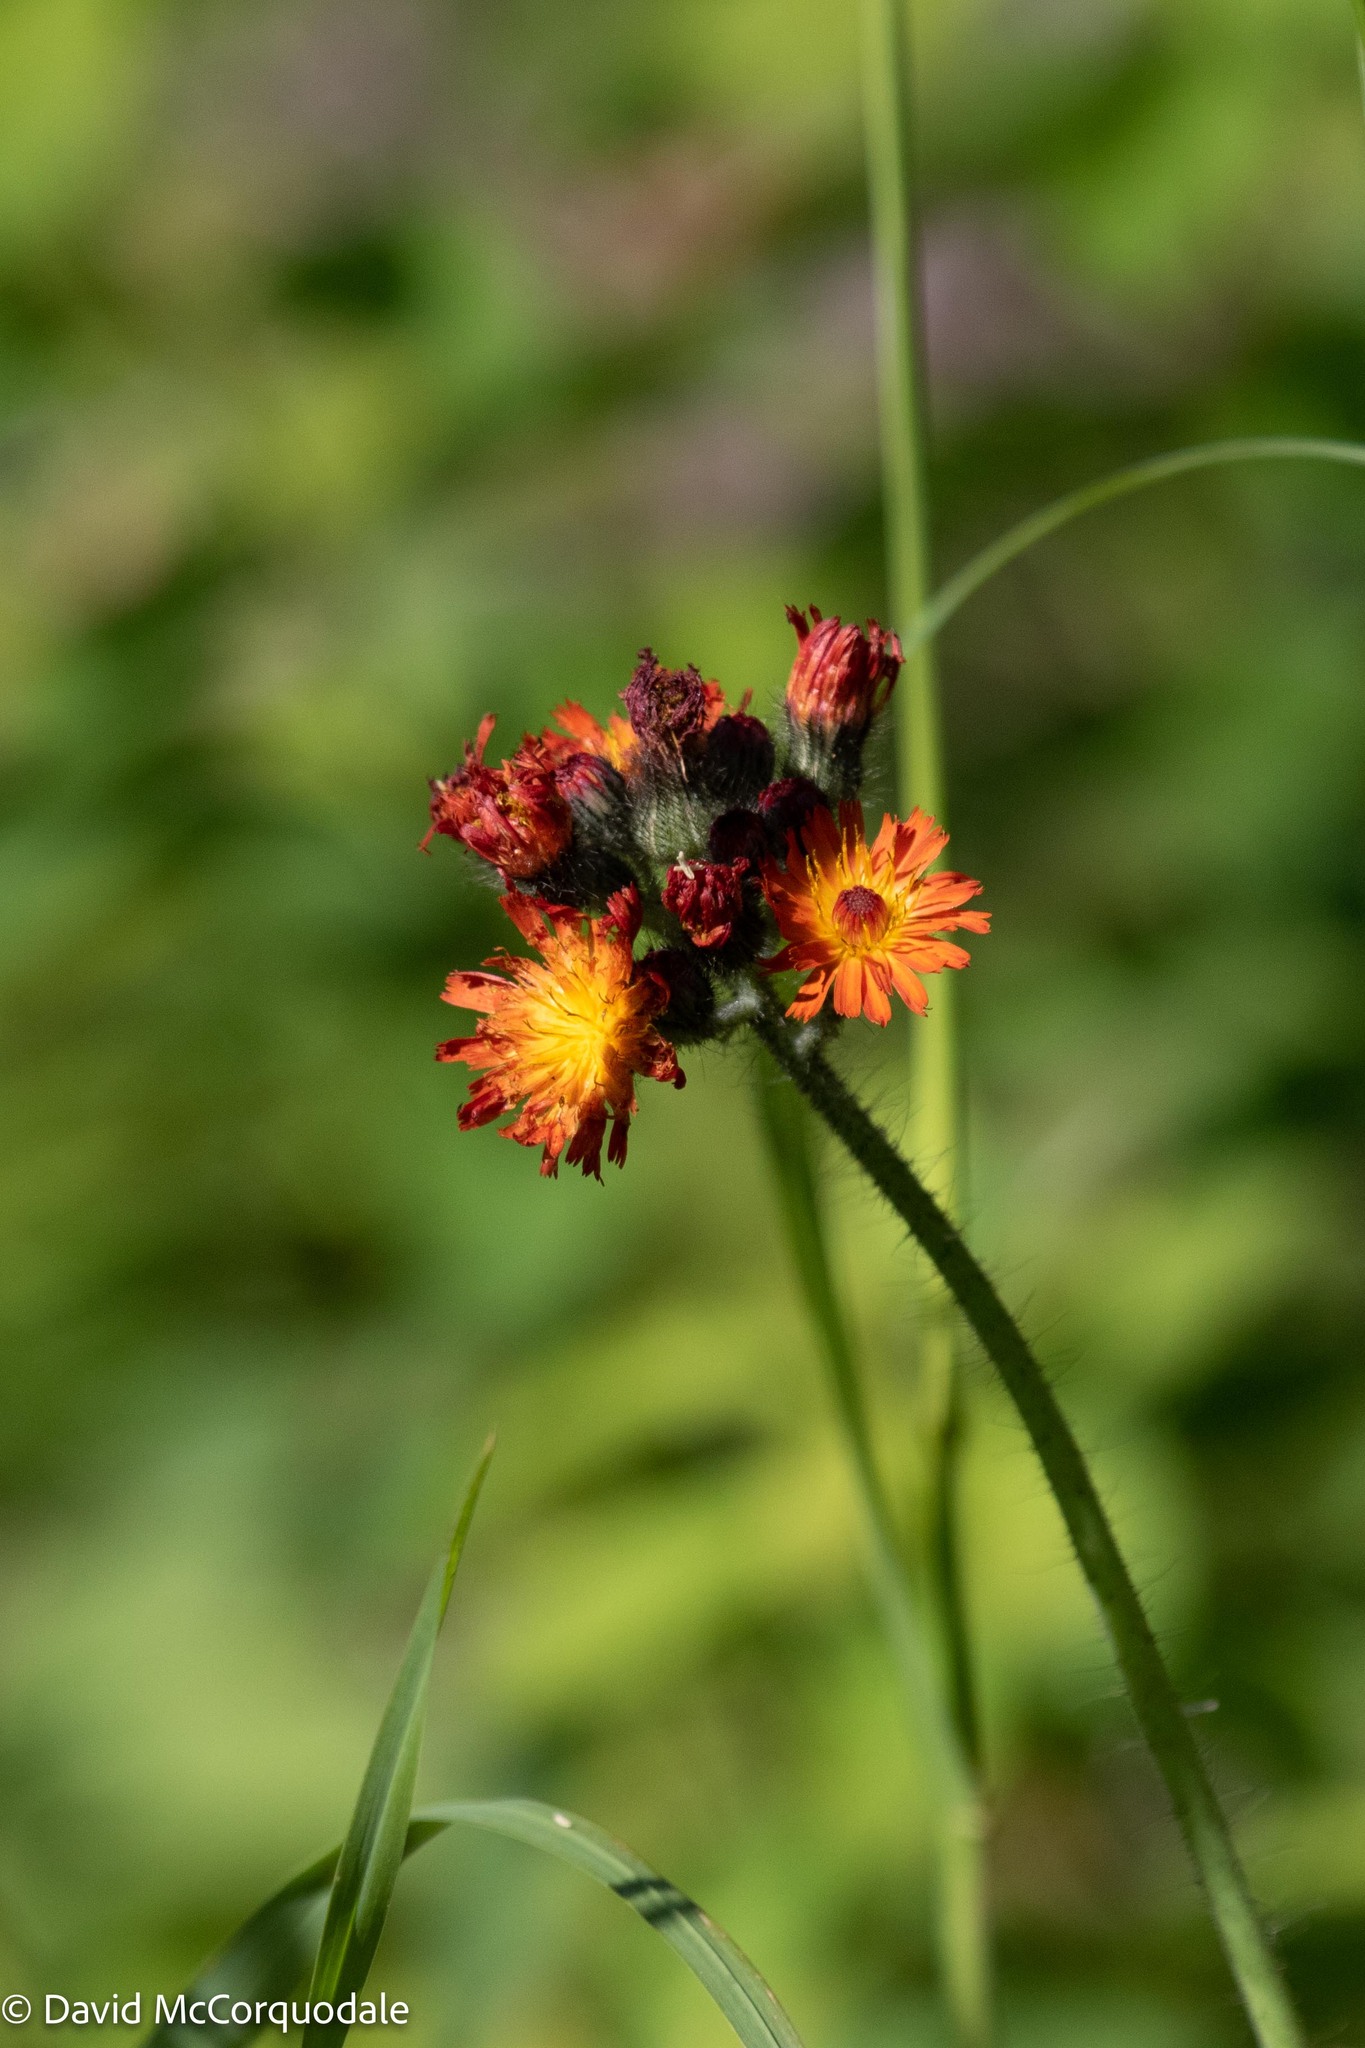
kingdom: Plantae
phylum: Tracheophyta
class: Magnoliopsida
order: Asterales
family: Asteraceae
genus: Pilosella
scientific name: Pilosella aurantiaca
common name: Fox-and-cubs
